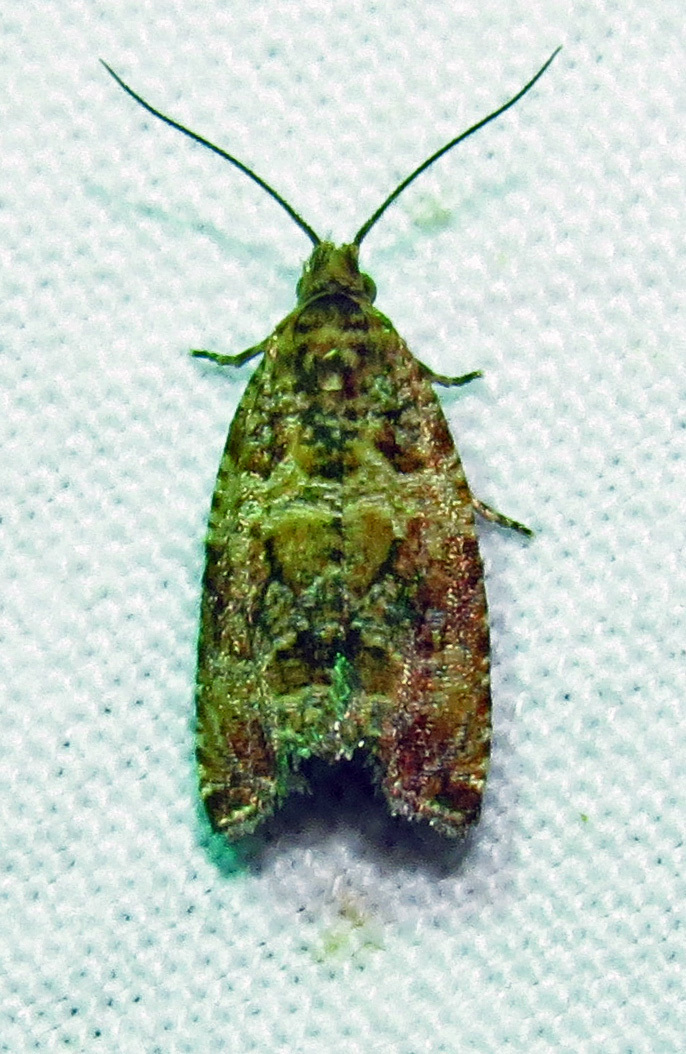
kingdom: Animalia
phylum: Arthropoda
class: Insecta
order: Lepidoptera
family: Tortricidae
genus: Celypha
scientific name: Celypha cespitana
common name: Thyme marble
